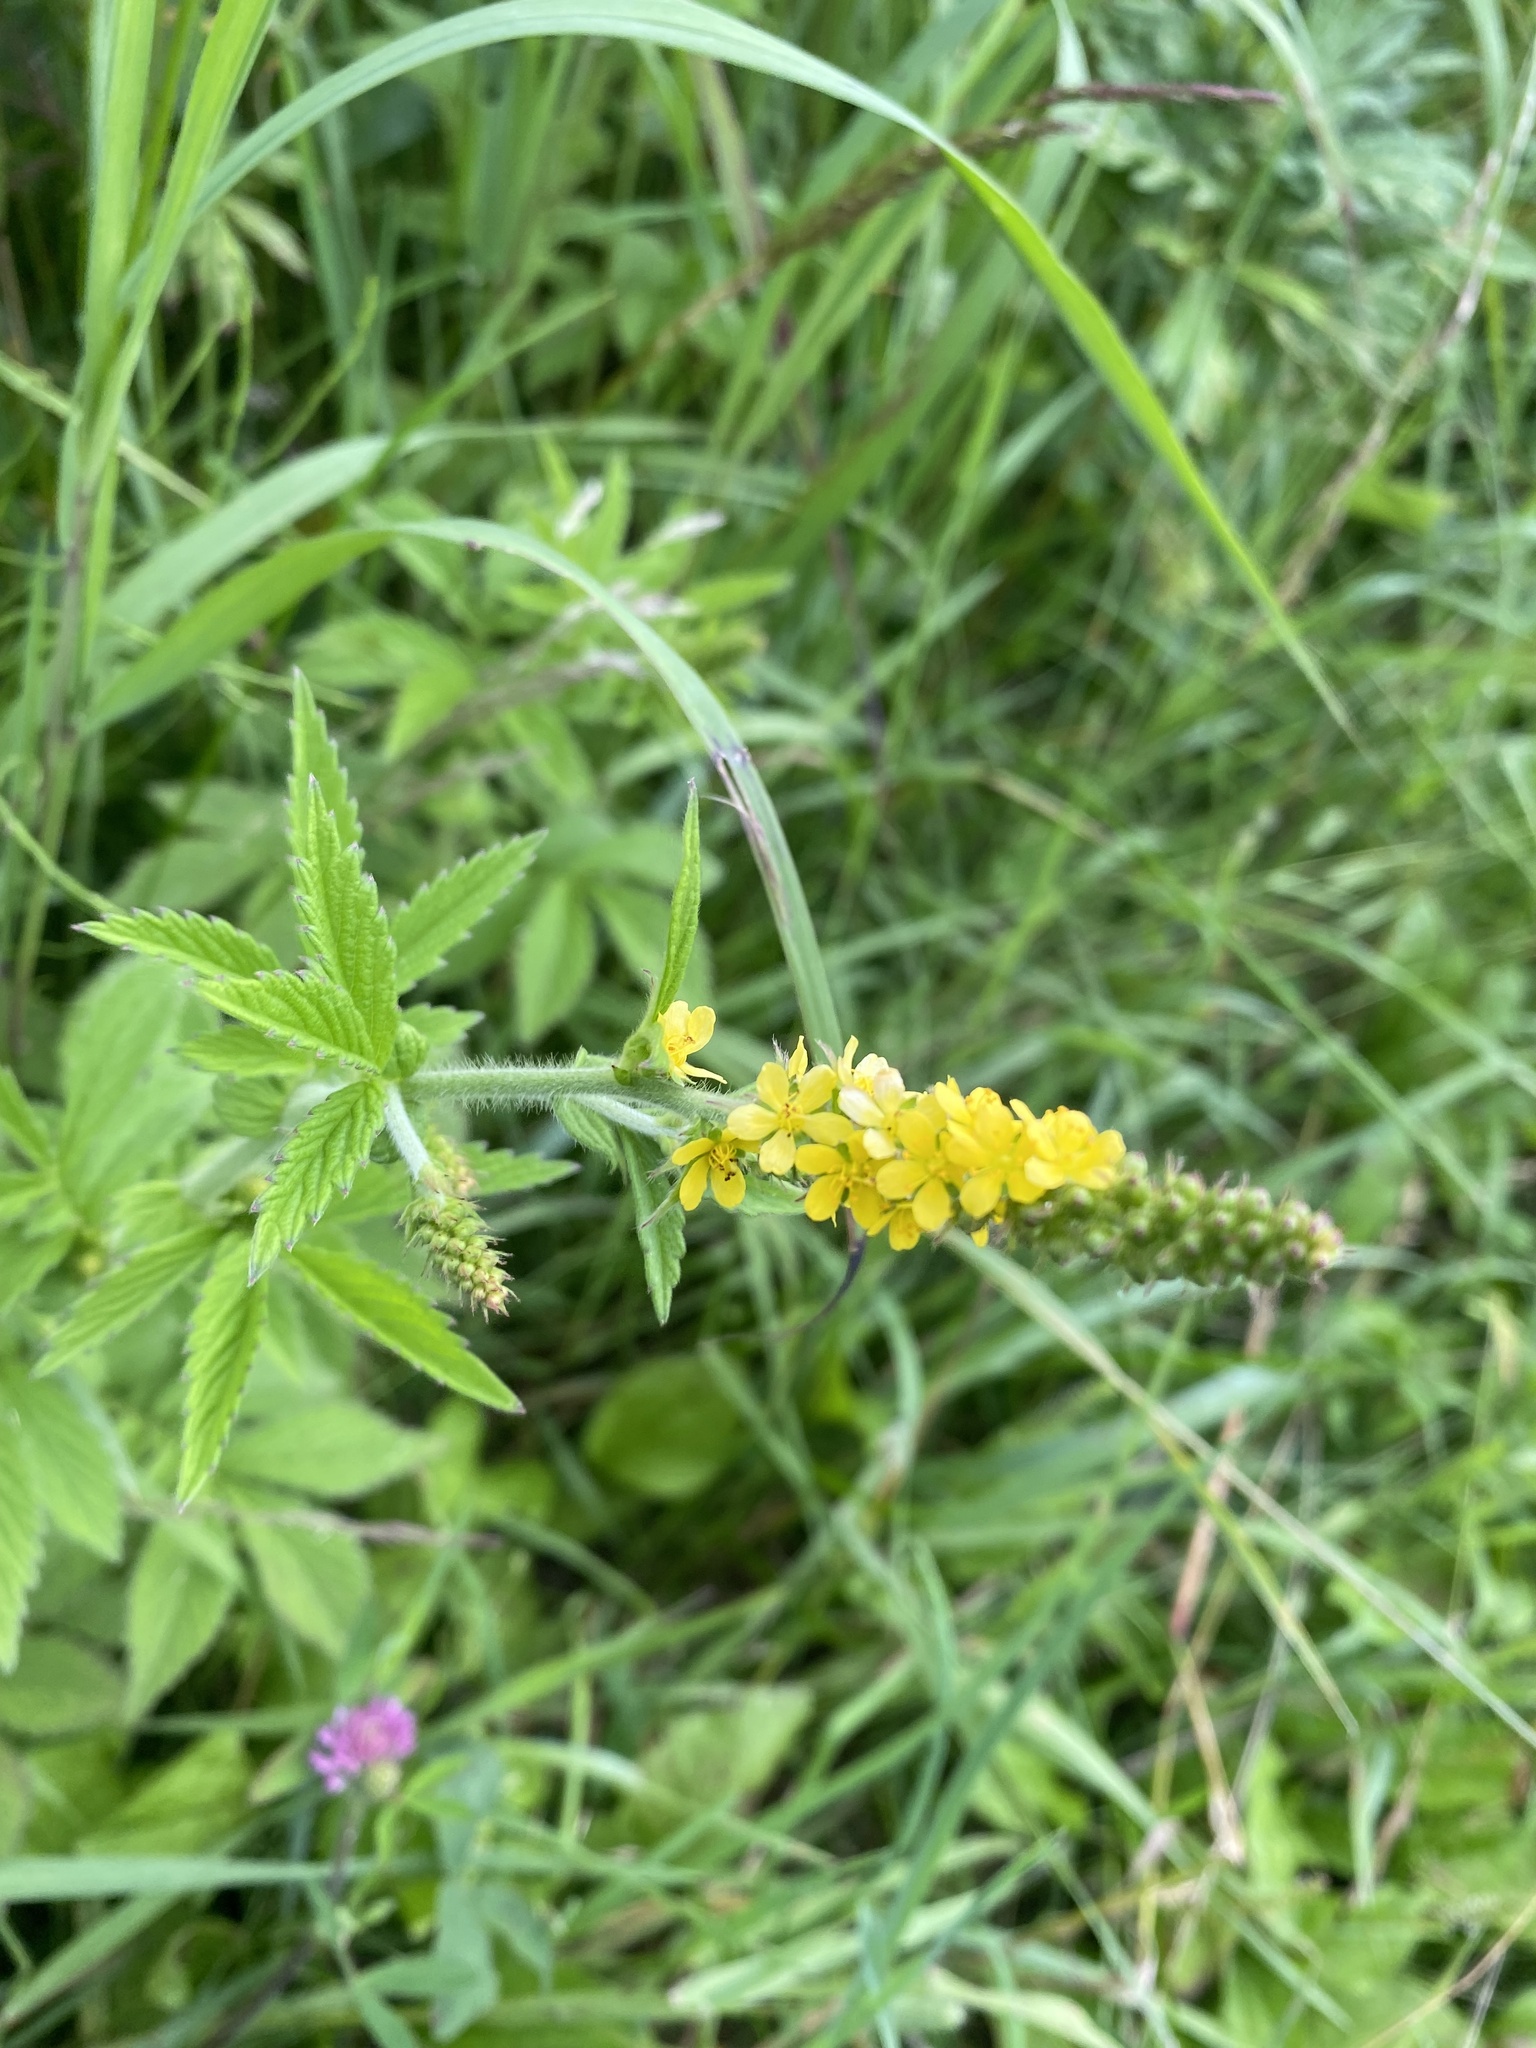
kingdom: Plantae
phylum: Tracheophyta
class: Magnoliopsida
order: Rosales
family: Rosaceae
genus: Agrimonia
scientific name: Agrimonia eupatoria
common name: Agrimony
